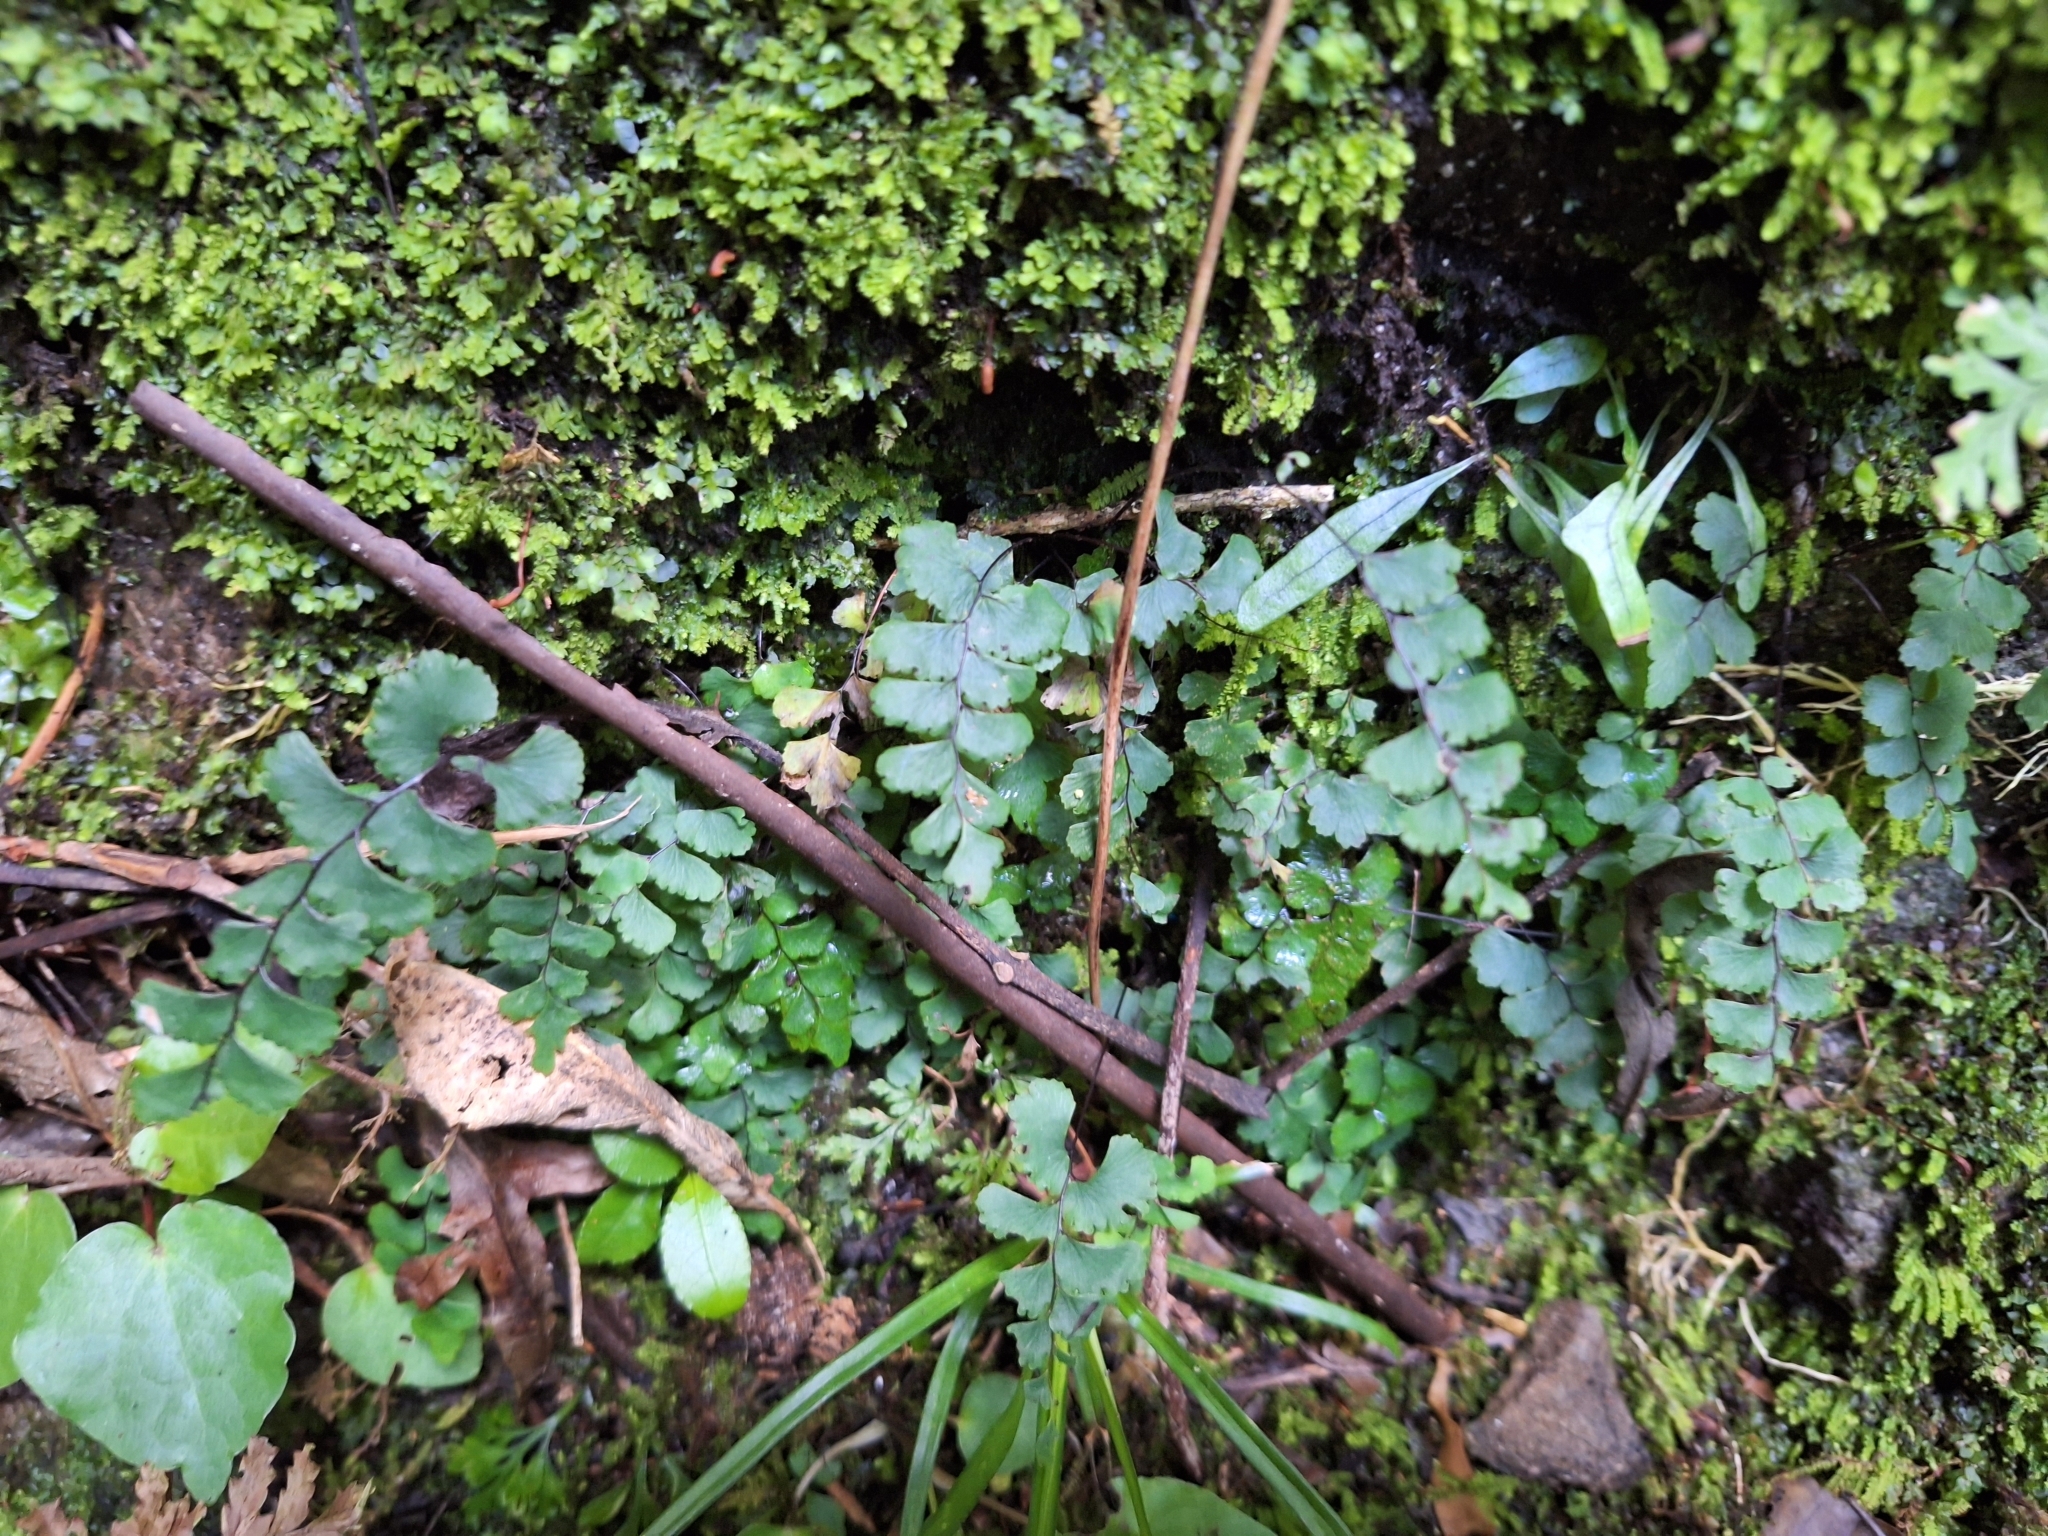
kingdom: Plantae
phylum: Tracheophyta
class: Polypodiopsida
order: Polypodiales
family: Pteridaceae
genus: Adiantum
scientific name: Adiantum diaphanum
